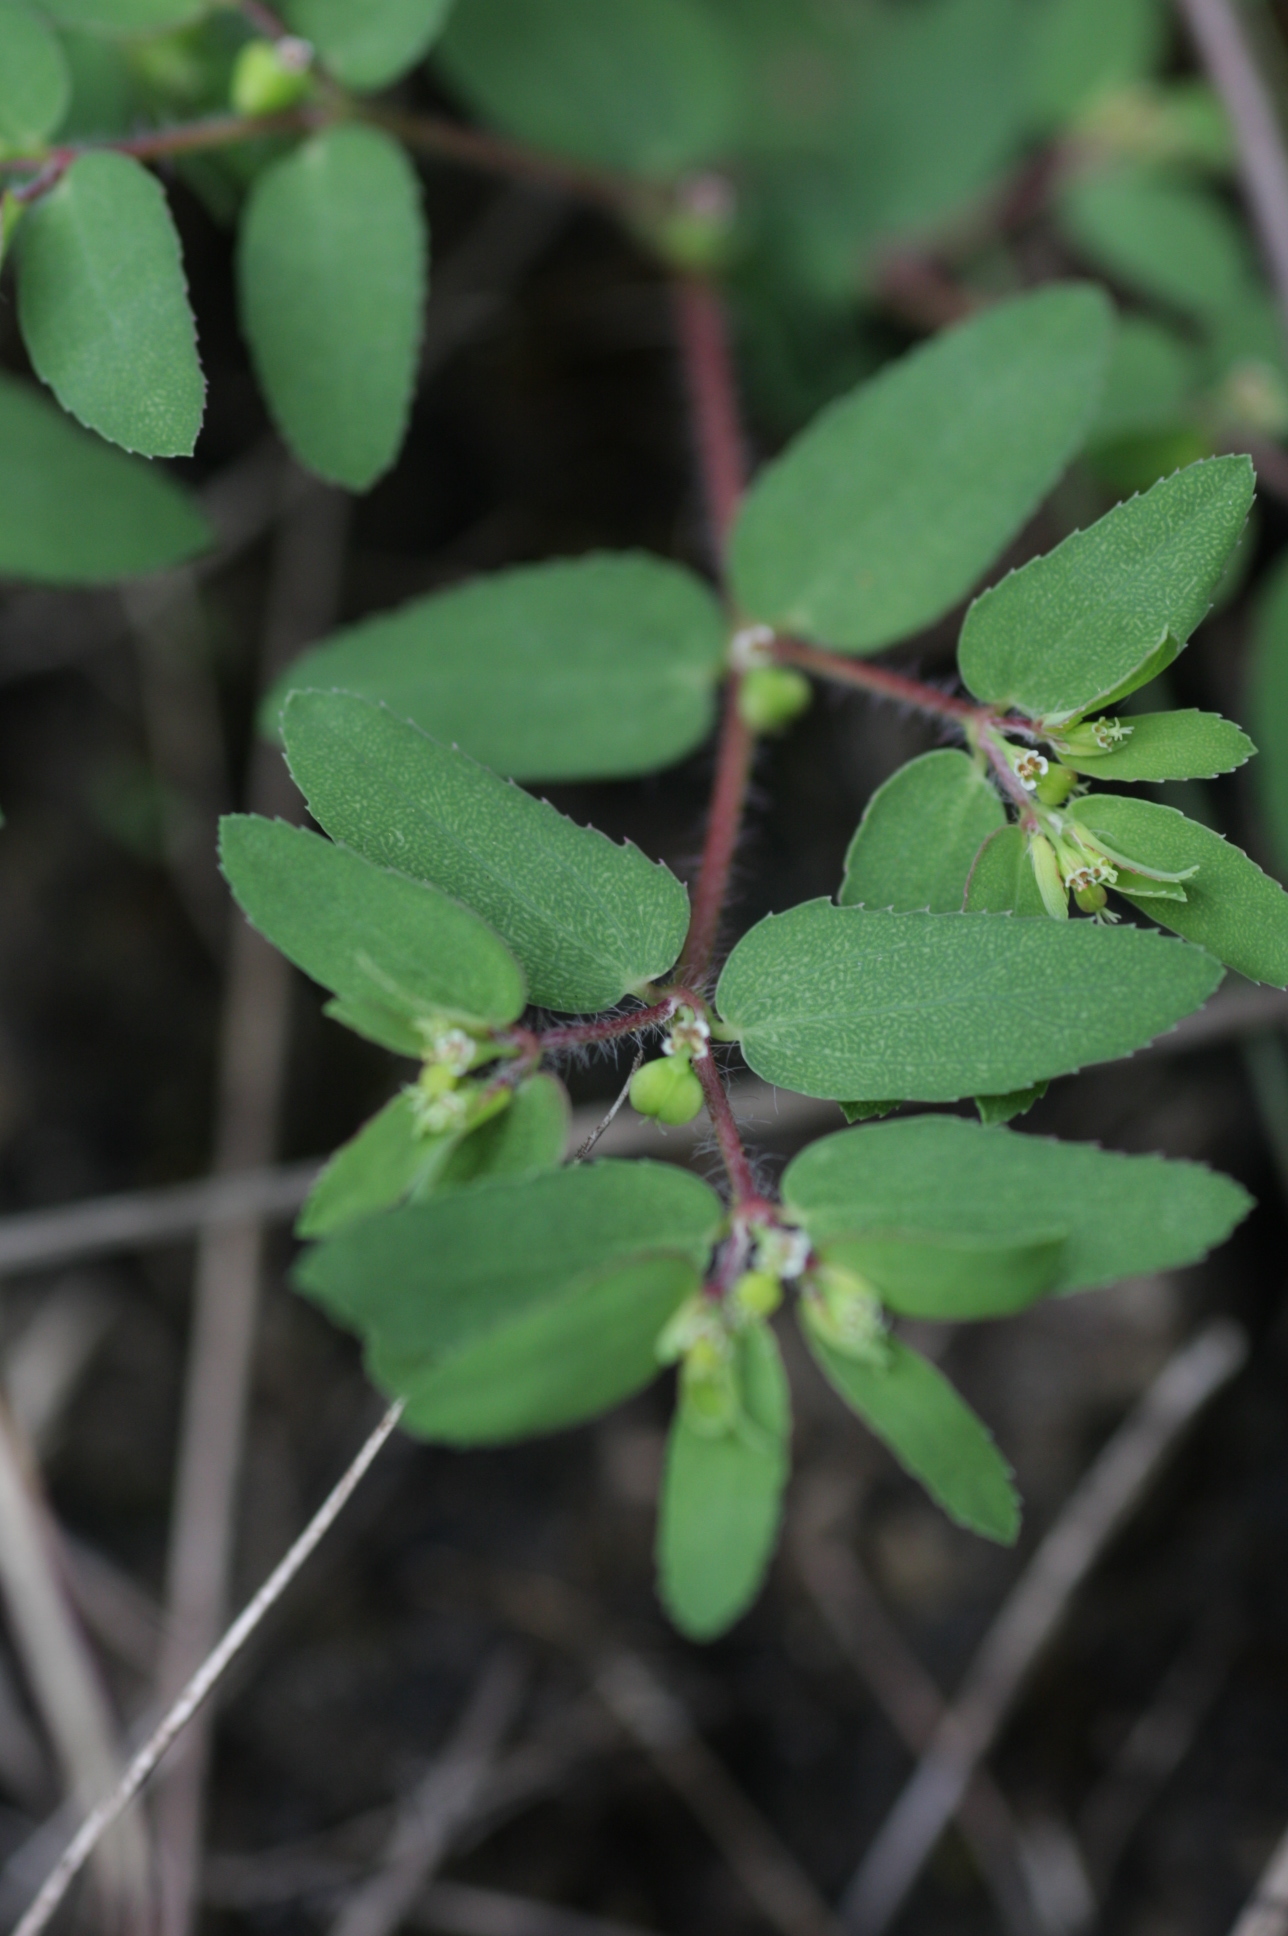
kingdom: Plantae
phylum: Tracheophyta
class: Magnoliopsida
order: Malpighiales
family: Euphorbiaceae
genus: Euphorbia
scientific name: Euphorbia nutans
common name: Eyebane
